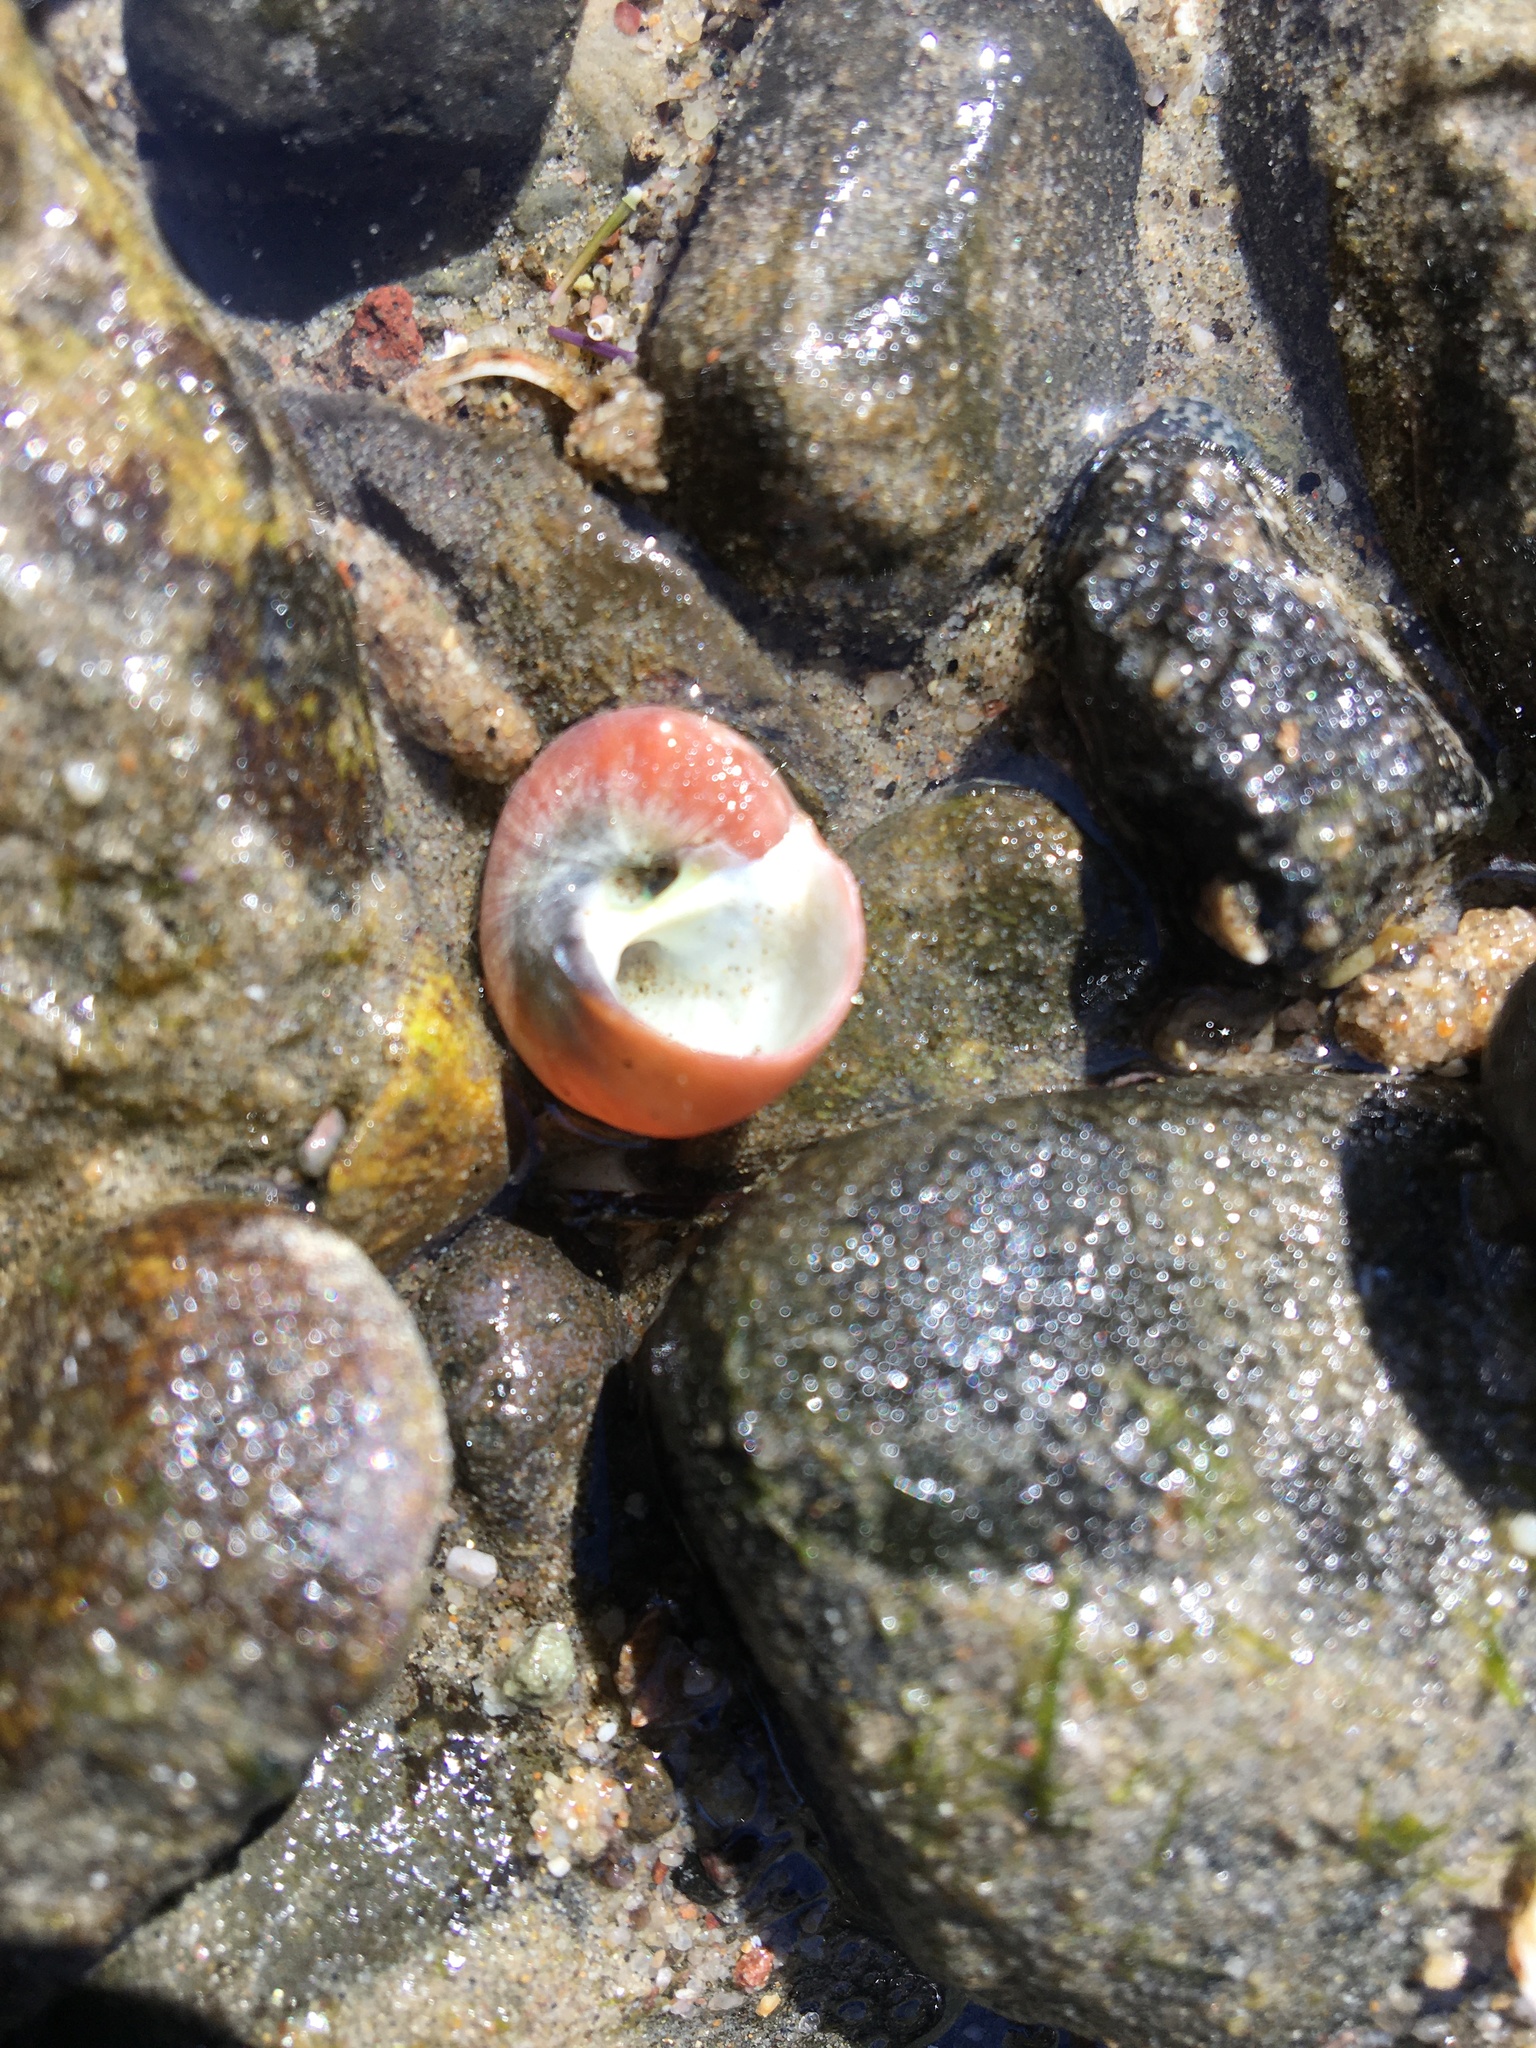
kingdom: Animalia
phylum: Mollusca
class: Gastropoda
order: Trochida
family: Tegulidae
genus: Norrisia
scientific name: Norrisia norrisii
